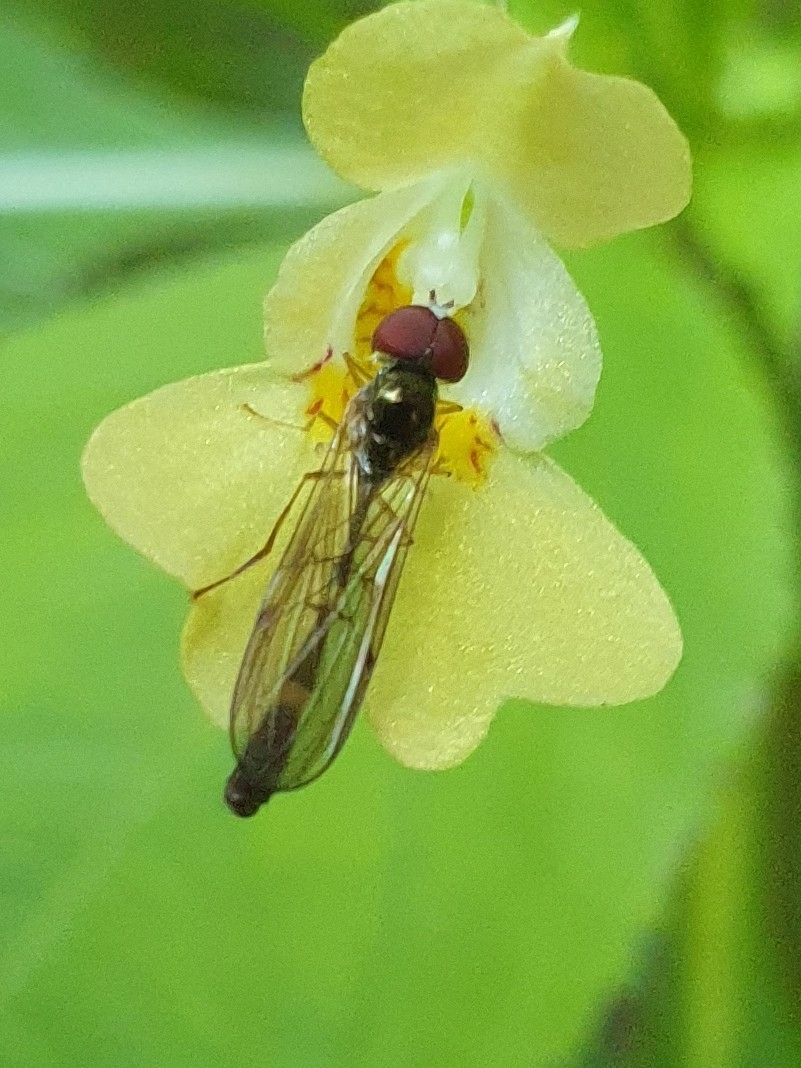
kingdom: Animalia
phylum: Arthropoda
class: Insecta
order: Diptera
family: Syrphidae
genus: Baccha
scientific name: Baccha elongata
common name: Common dainty
